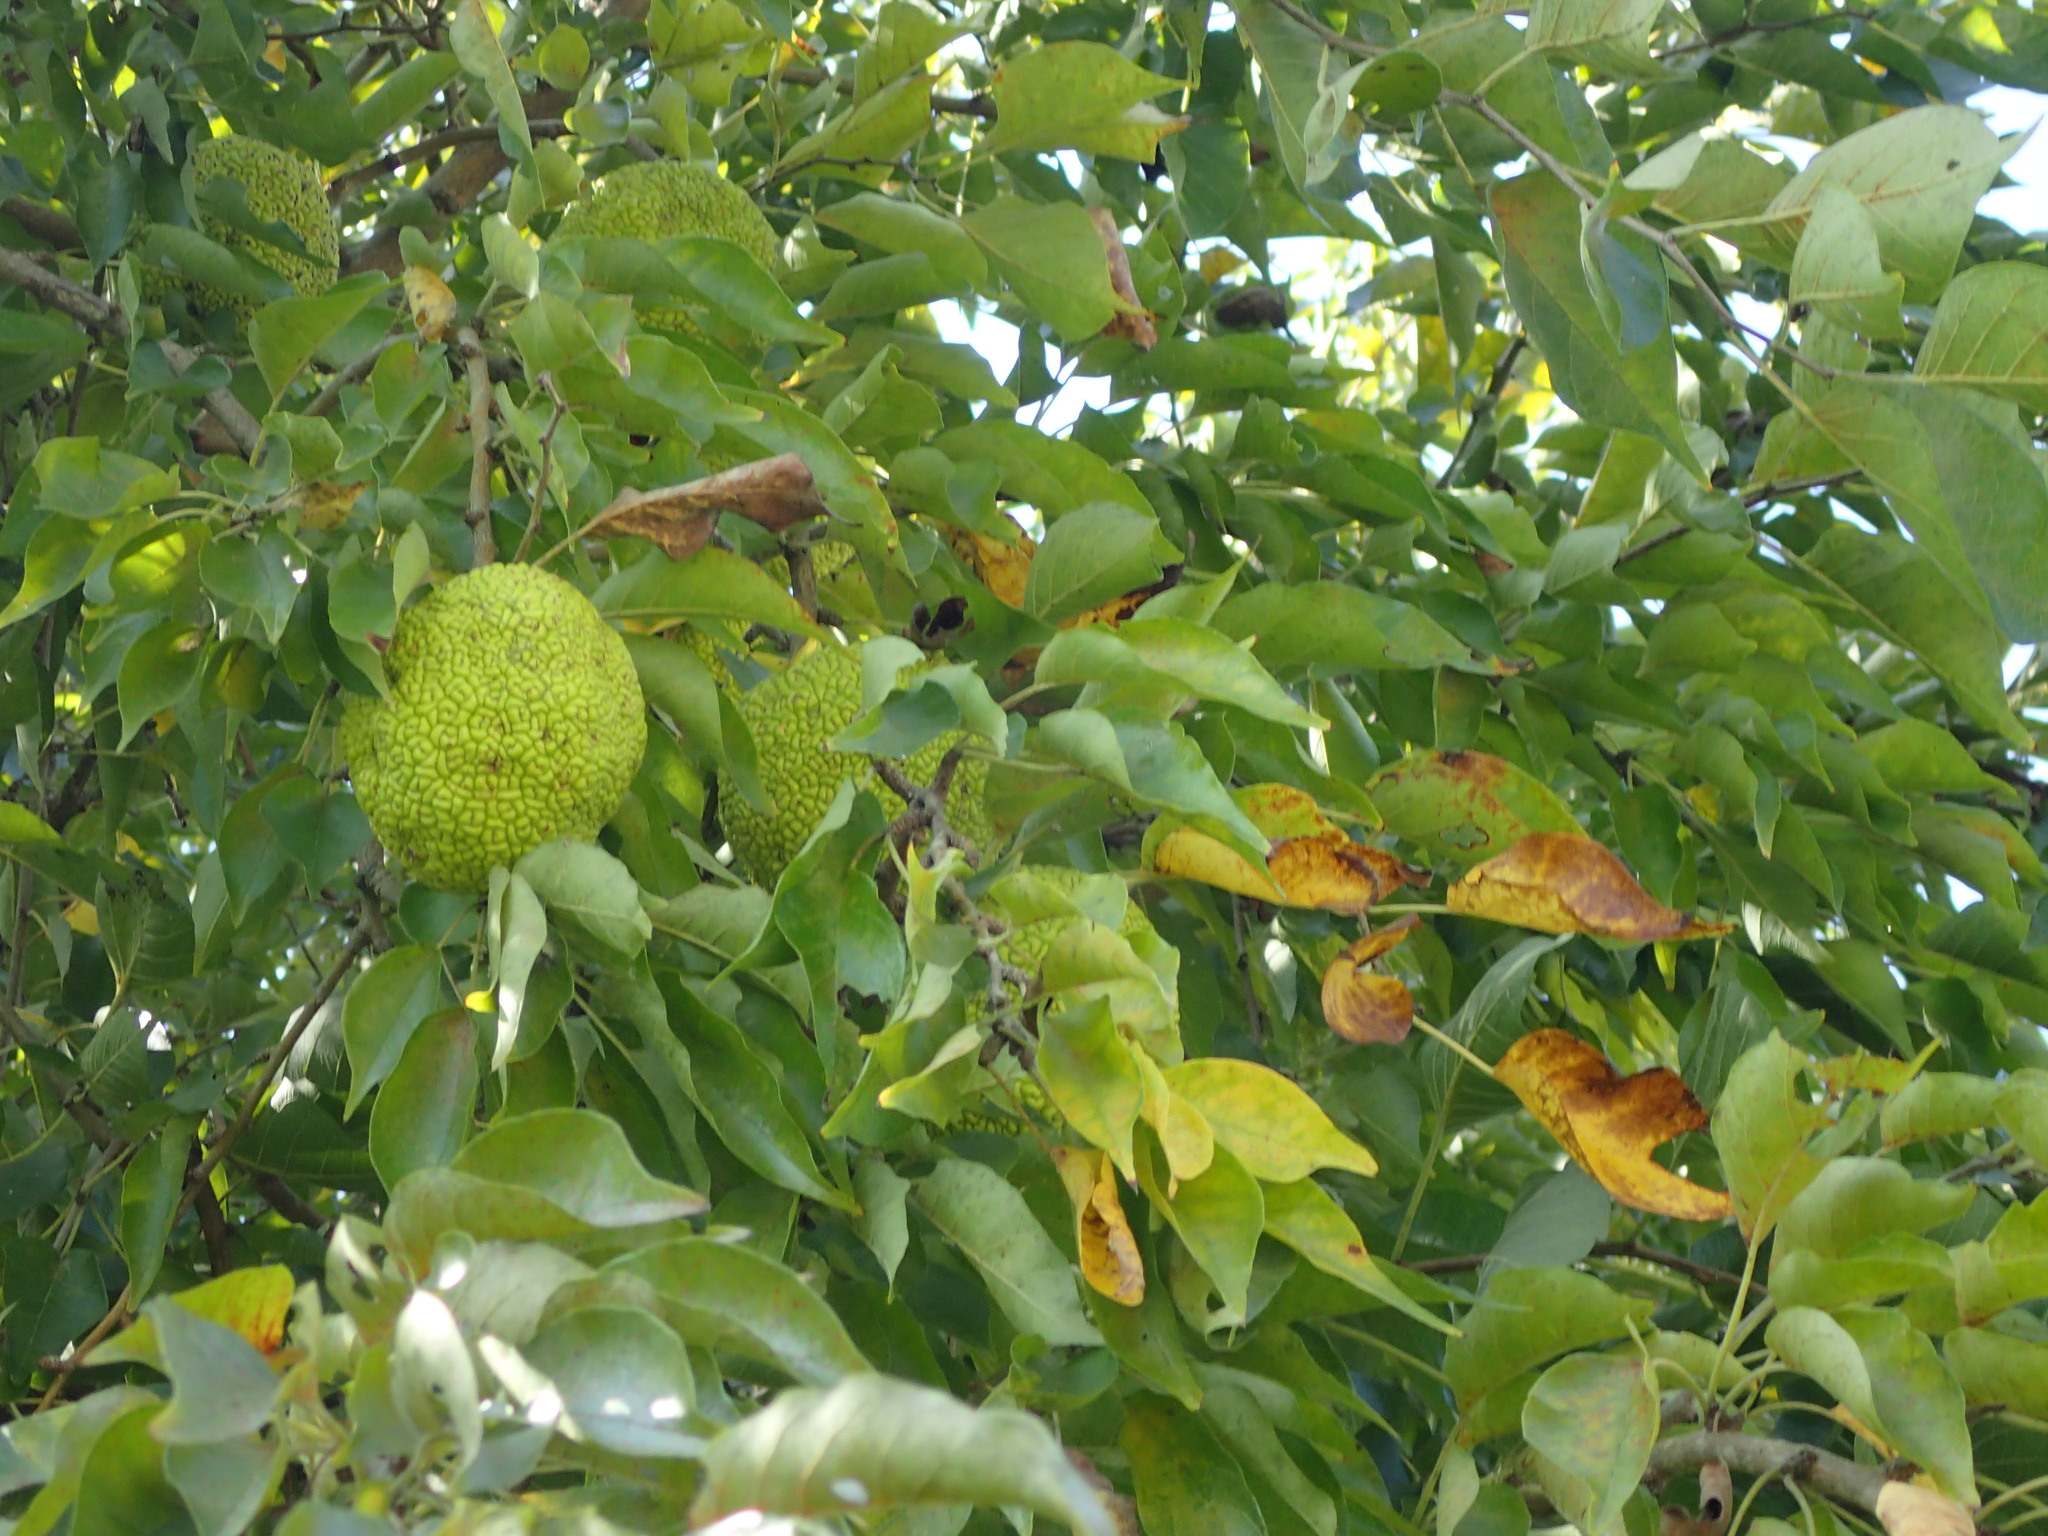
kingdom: Plantae
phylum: Tracheophyta
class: Magnoliopsida
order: Rosales
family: Moraceae
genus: Maclura
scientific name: Maclura pomifera
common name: Osage-orange
